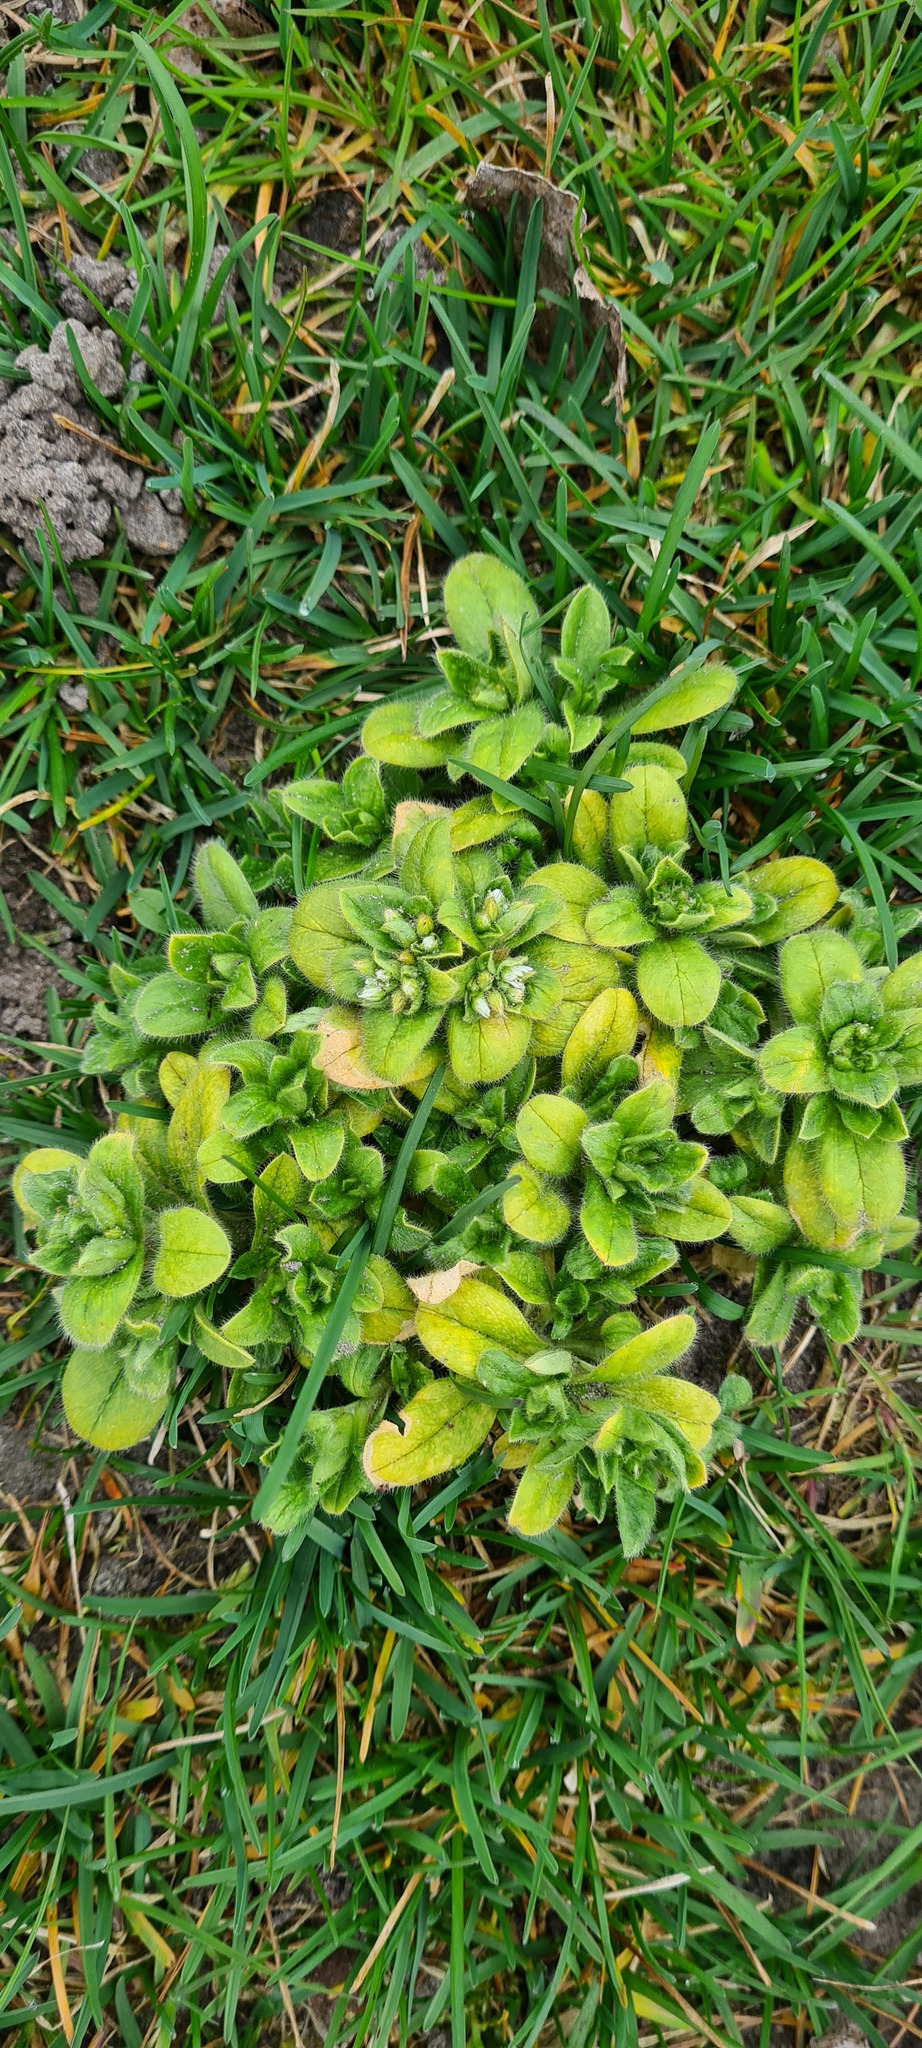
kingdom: Plantae
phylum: Tracheophyta
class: Magnoliopsida
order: Caryophyllales
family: Caryophyllaceae
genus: Cerastium
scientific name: Cerastium glomeratum
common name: Sticky chickweed
